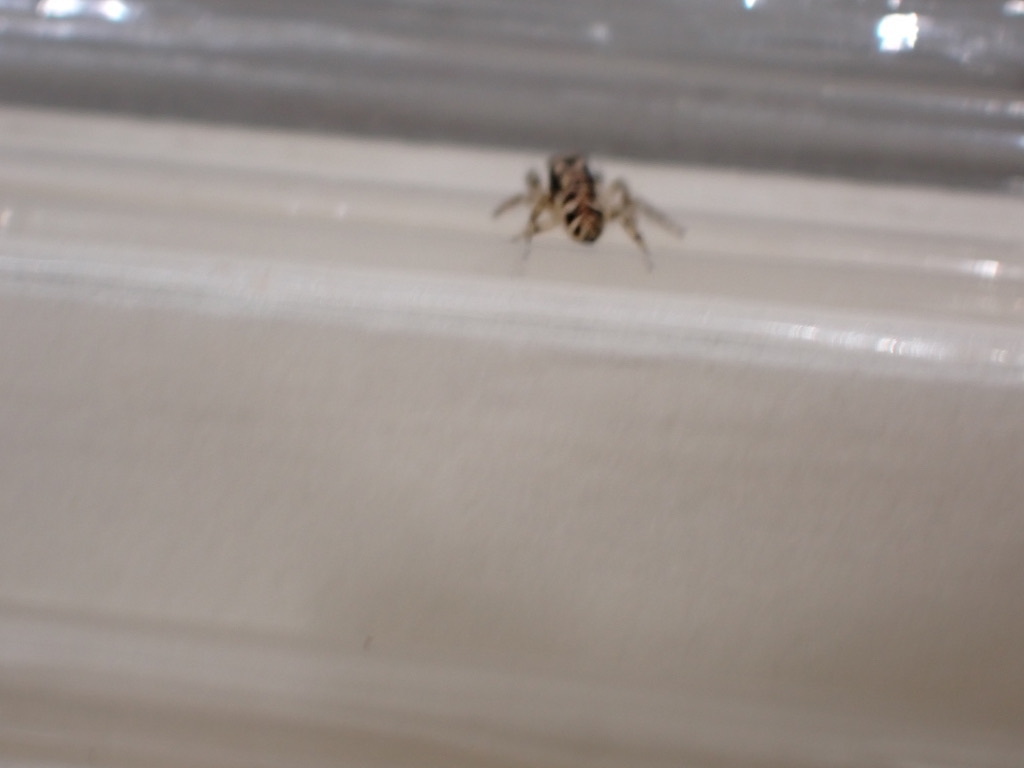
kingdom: Animalia
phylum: Arthropoda
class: Arachnida
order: Araneae
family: Salticidae
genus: Salticus
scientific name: Salticus scenicus
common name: Zebra jumper
